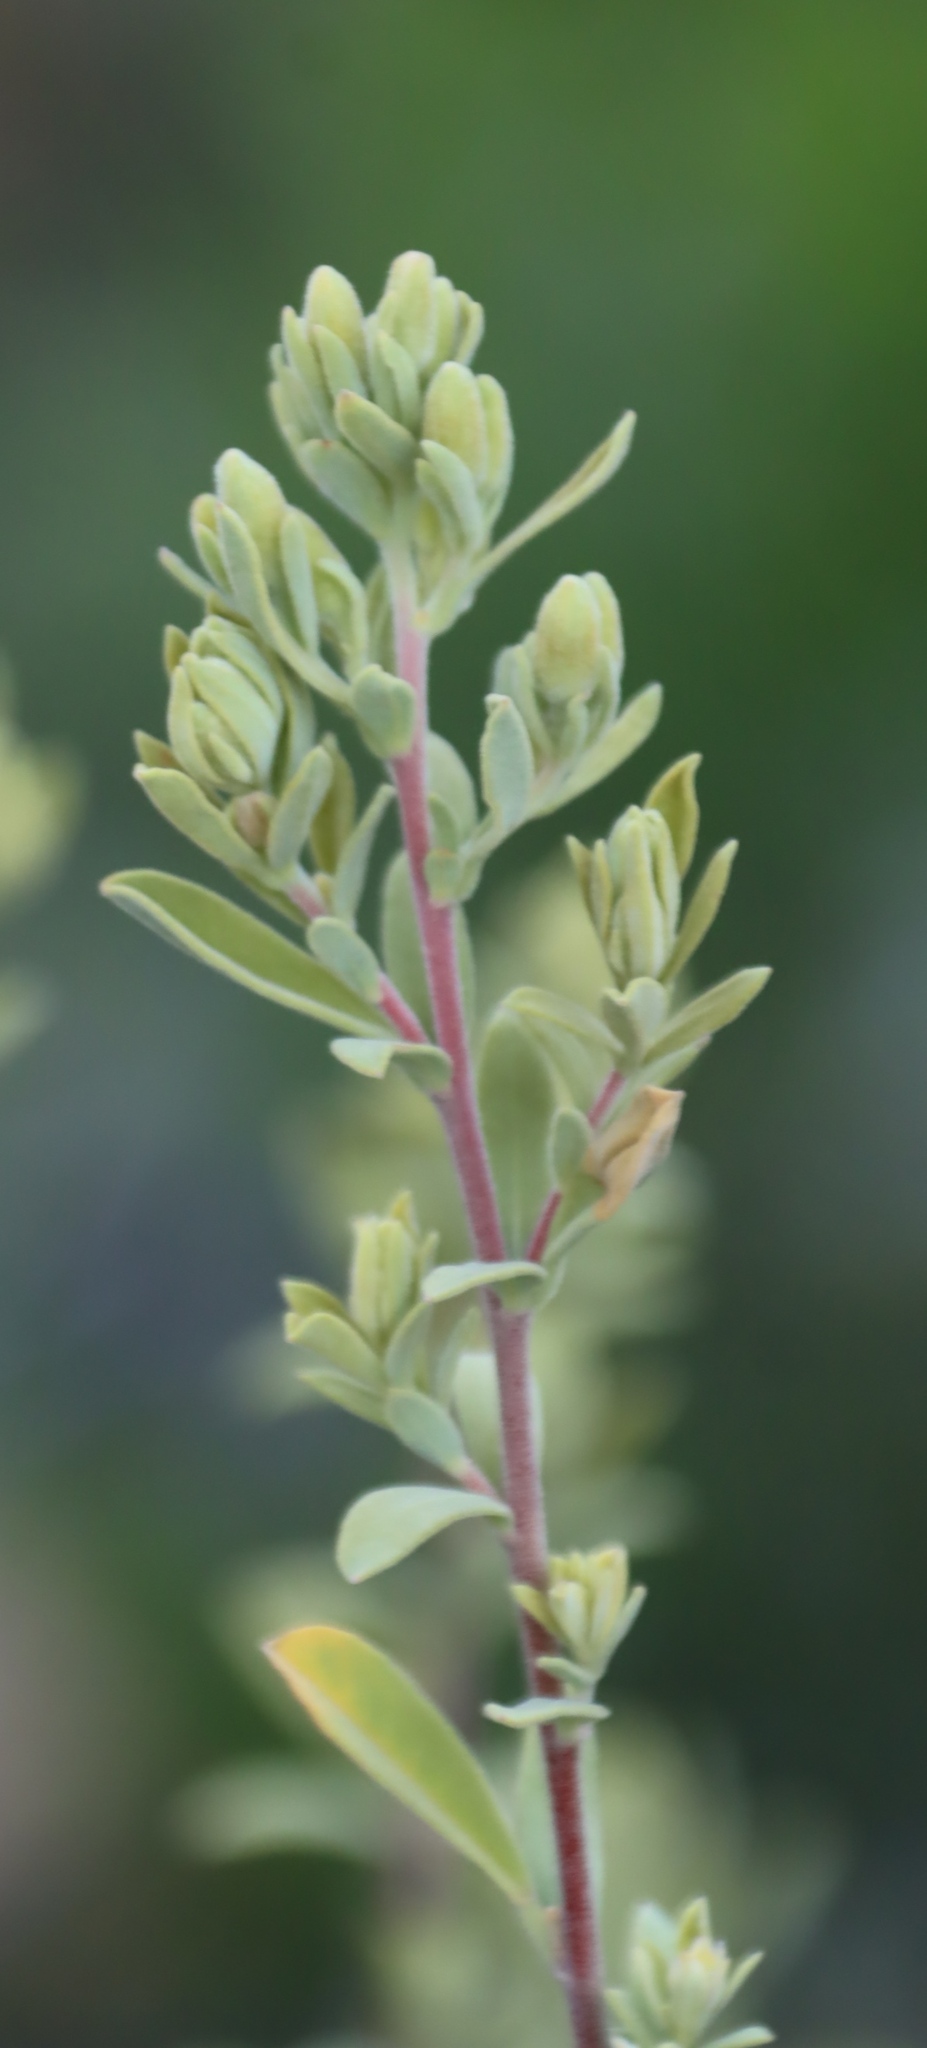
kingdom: Plantae
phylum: Tracheophyta
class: Magnoliopsida
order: Malpighiales
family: Peraceae
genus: Clutia
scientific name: Clutia daphnoides
